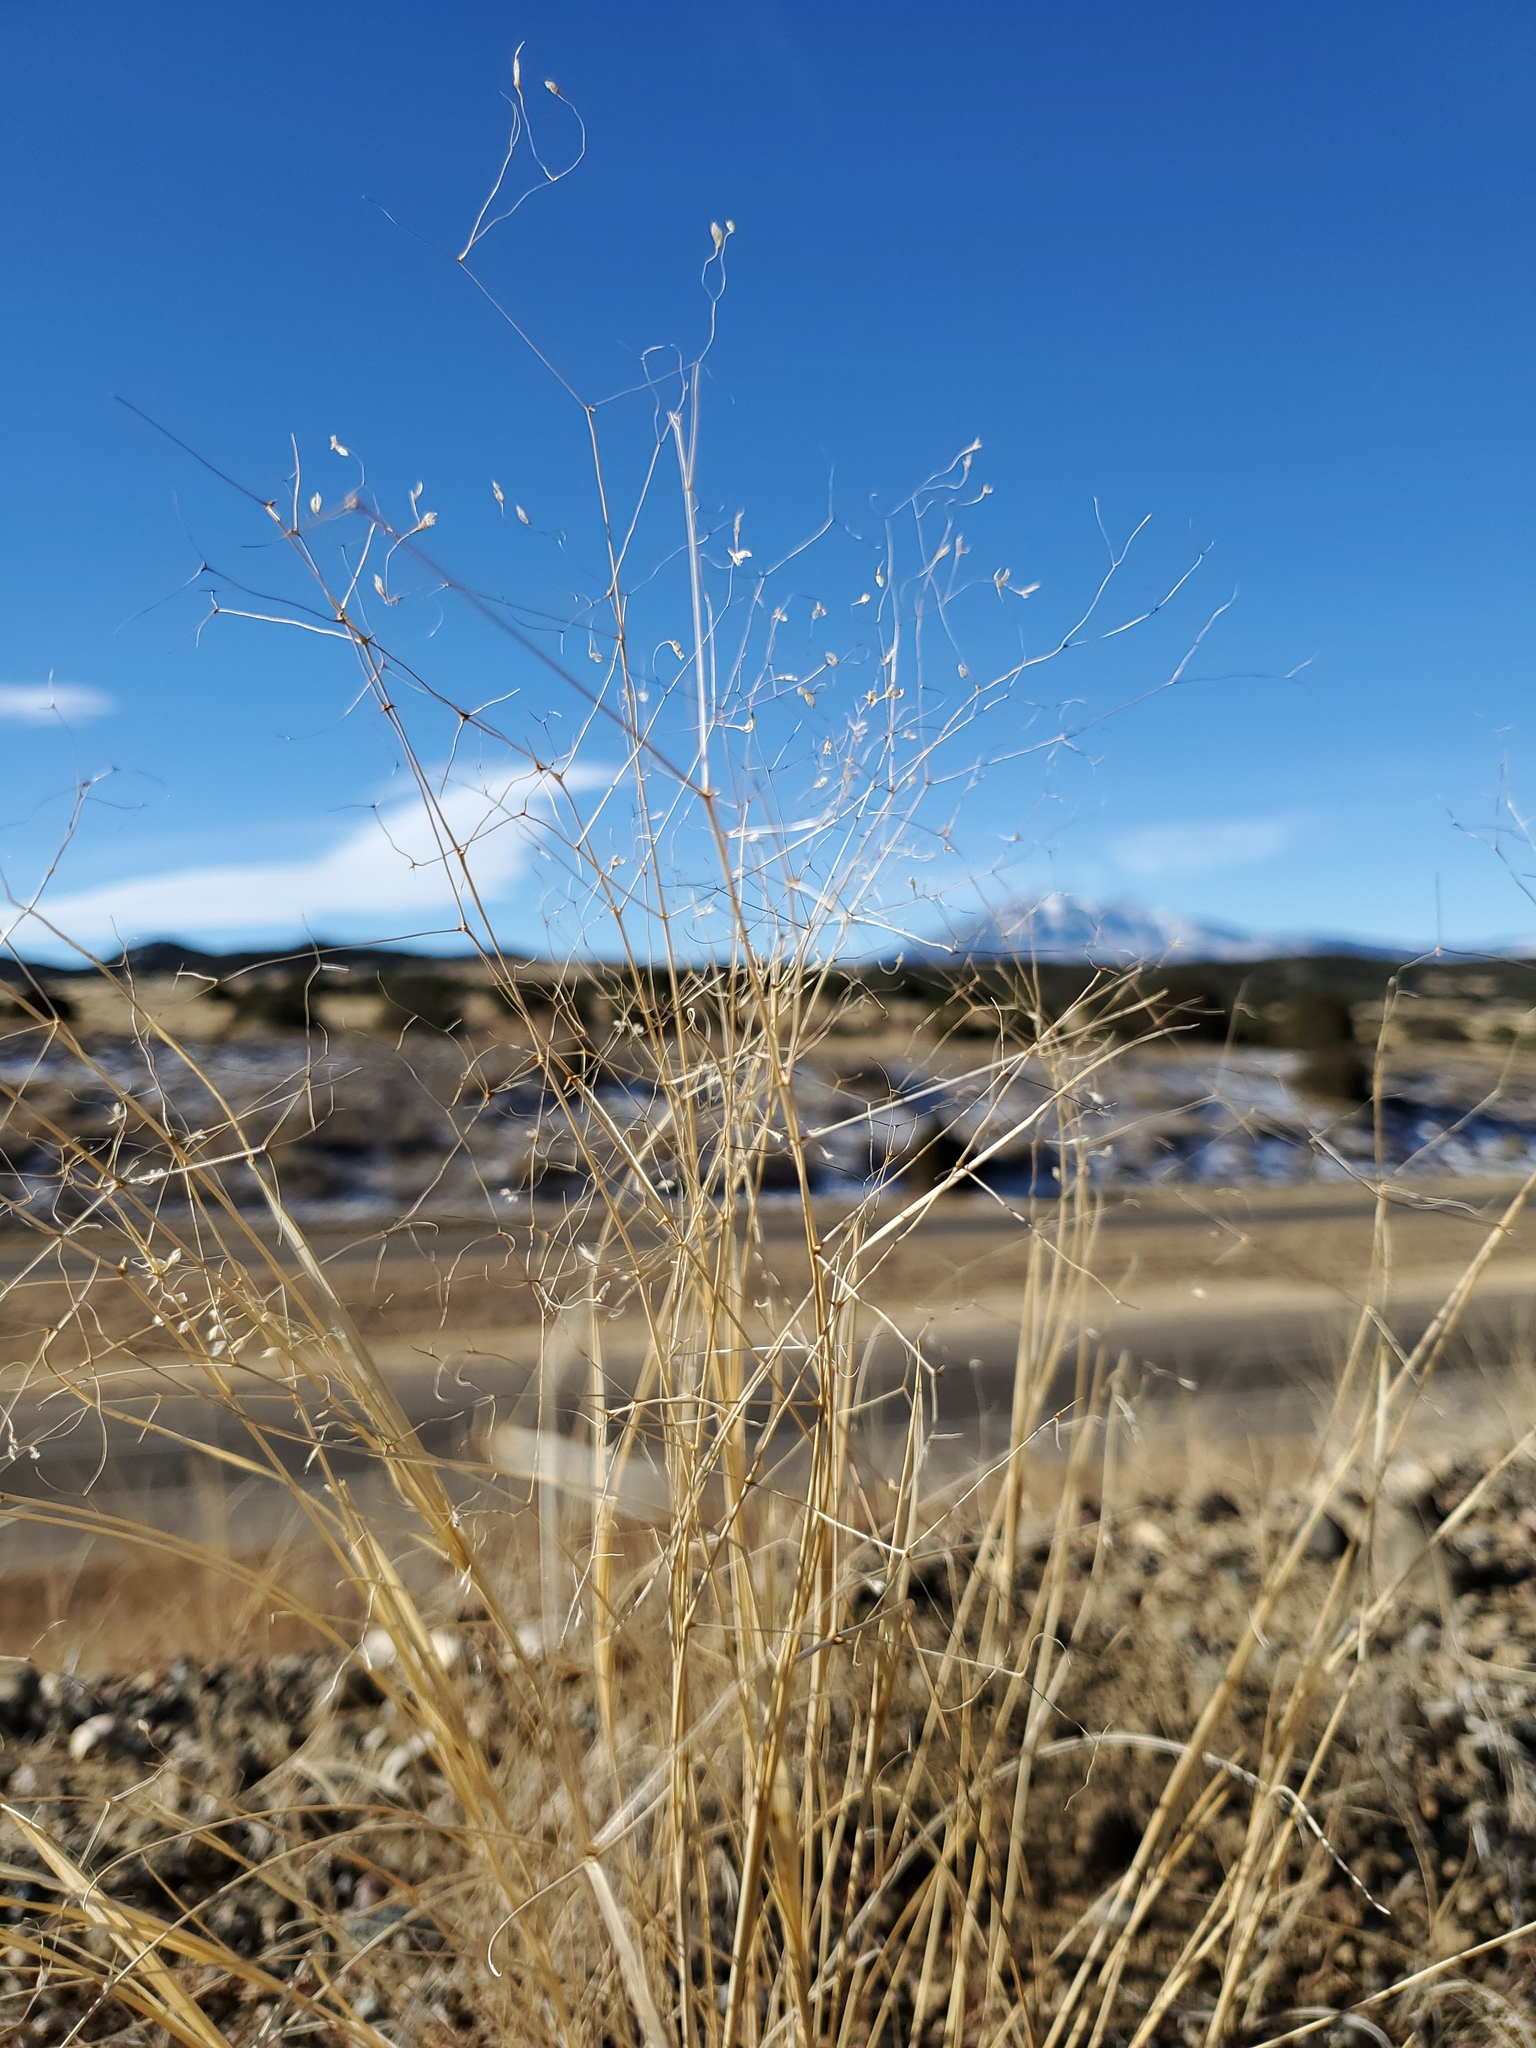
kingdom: Plantae
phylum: Tracheophyta
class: Liliopsida
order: Poales
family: Poaceae
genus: Eriocoma
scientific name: Eriocoma hymenoides
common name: Indian mountain ricegrass
